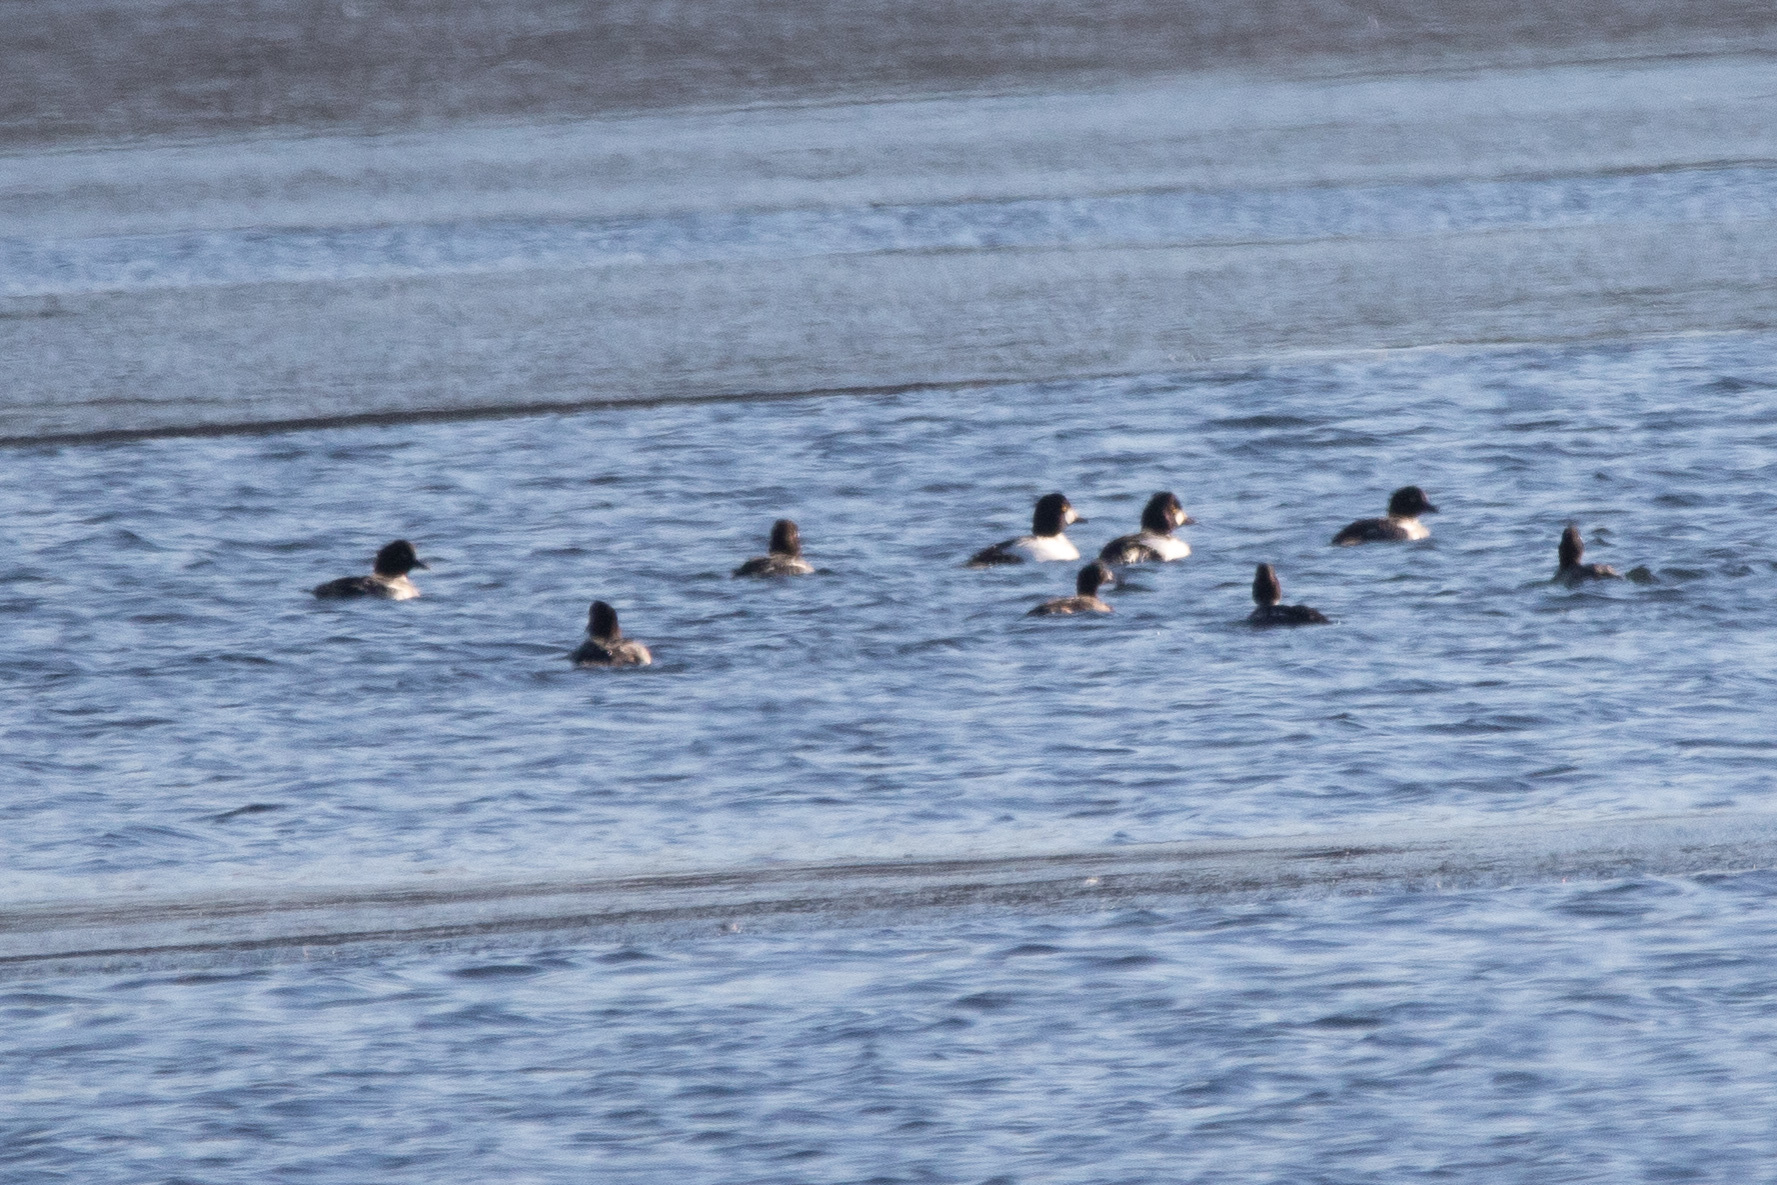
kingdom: Animalia
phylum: Chordata
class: Aves
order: Anseriformes
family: Anatidae
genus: Bucephala
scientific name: Bucephala clangula
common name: Common goldeneye
